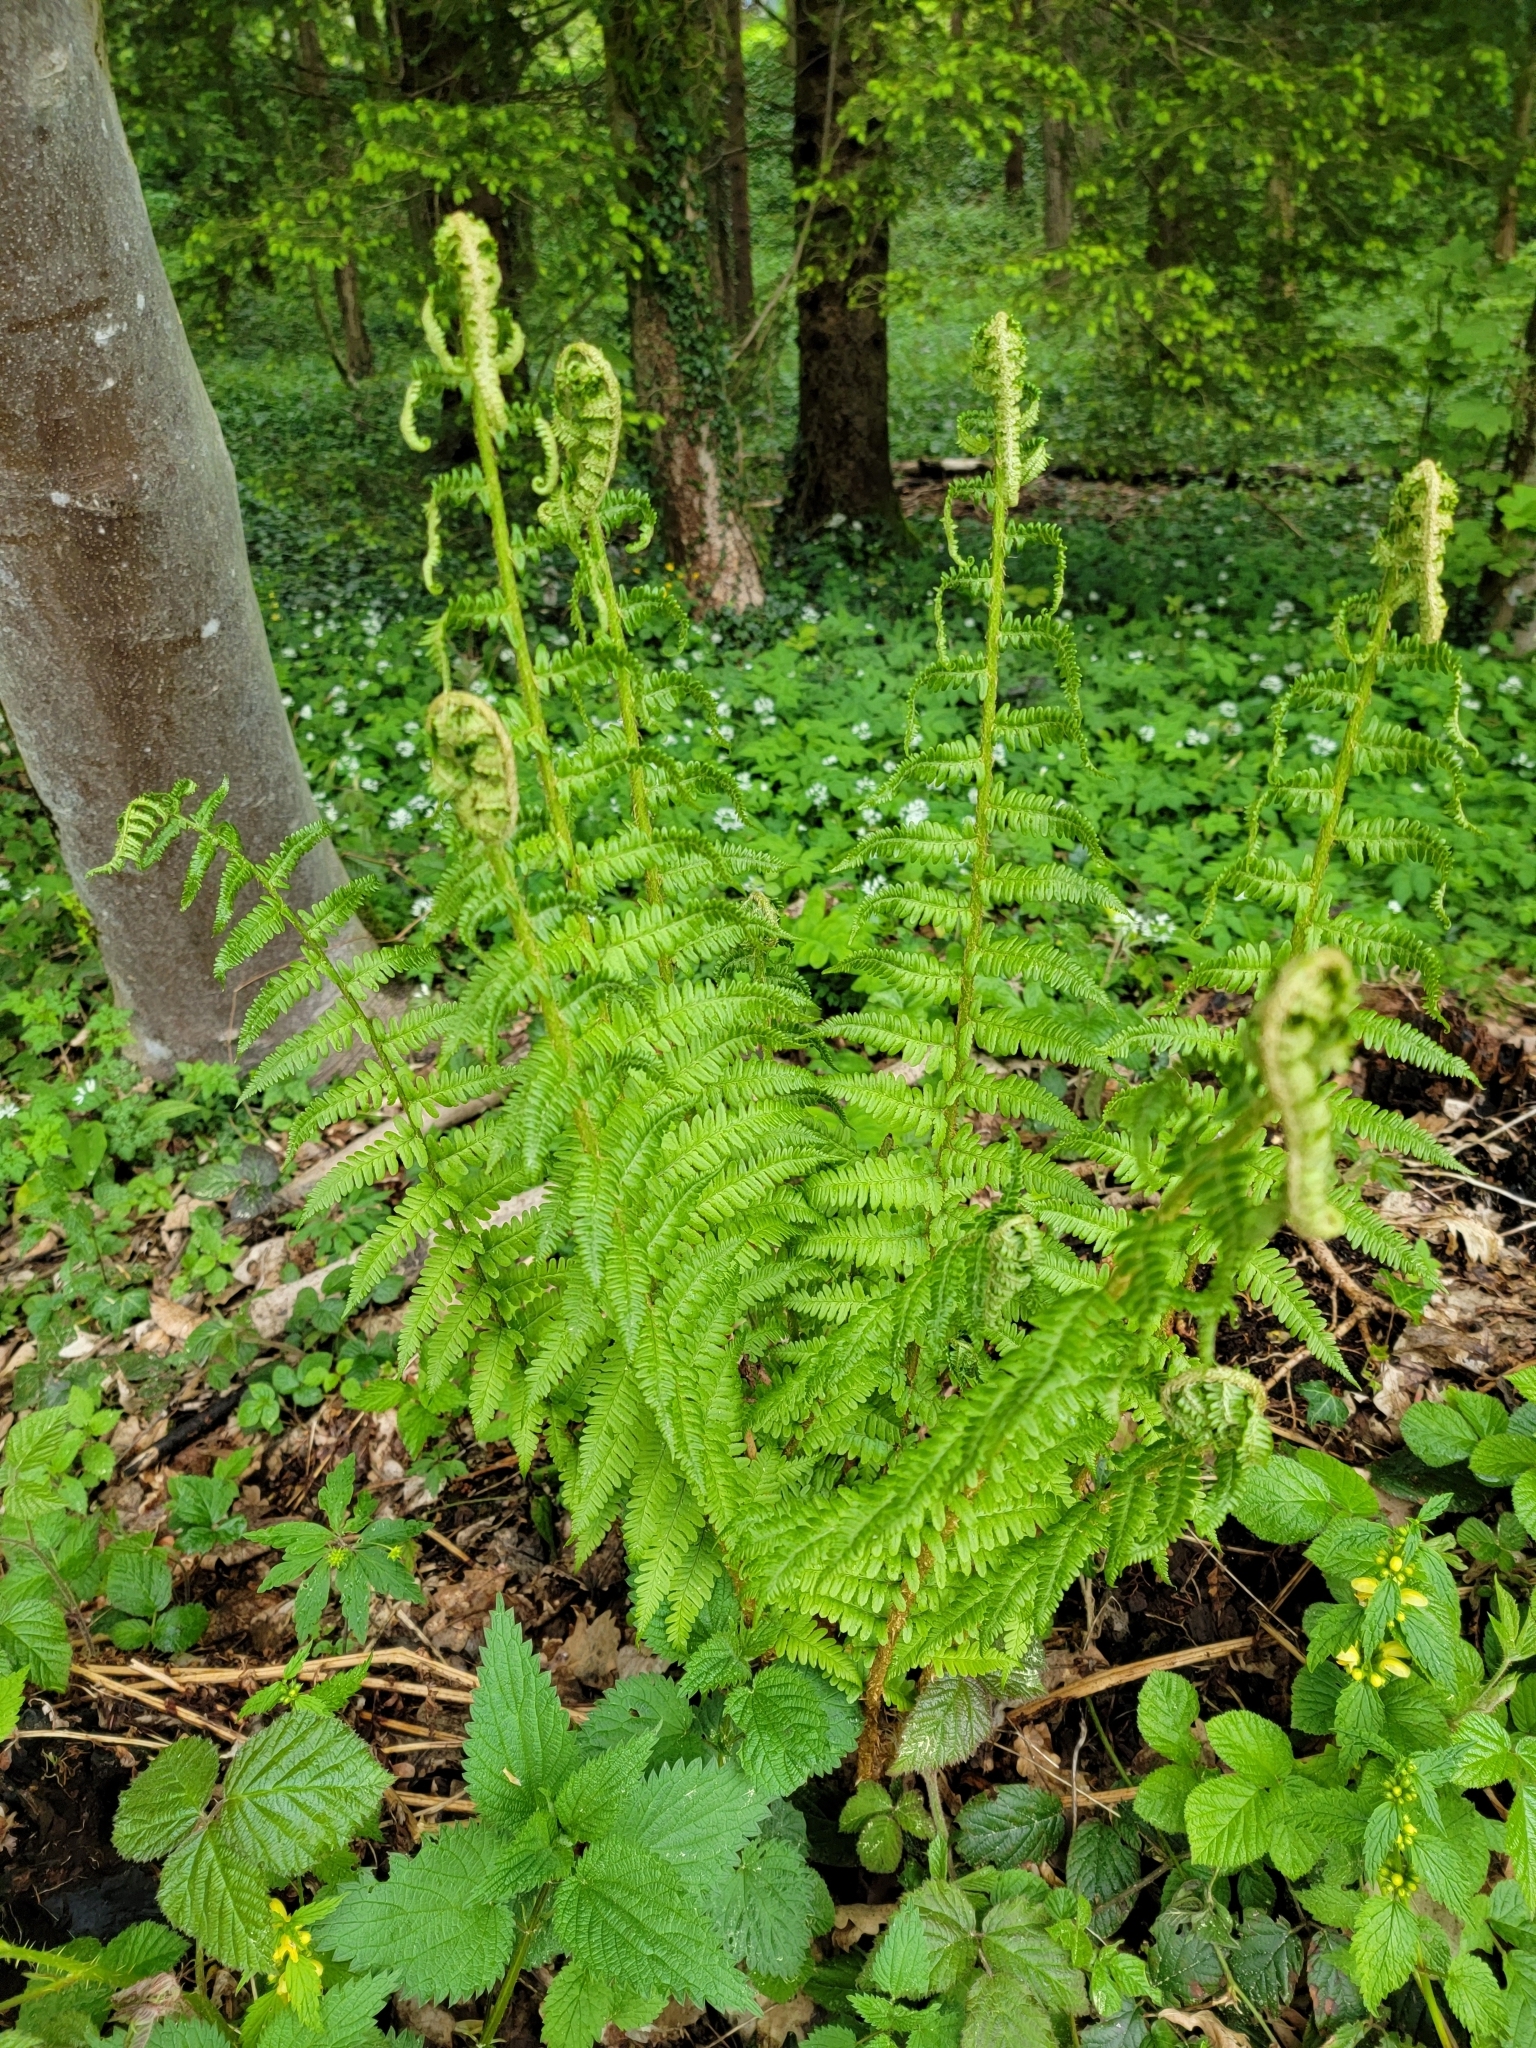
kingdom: Plantae
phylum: Tracheophyta
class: Polypodiopsida
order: Polypodiales
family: Dryopteridaceae
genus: Dryopteris
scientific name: Dryopteris filix-mas
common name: Male fern
